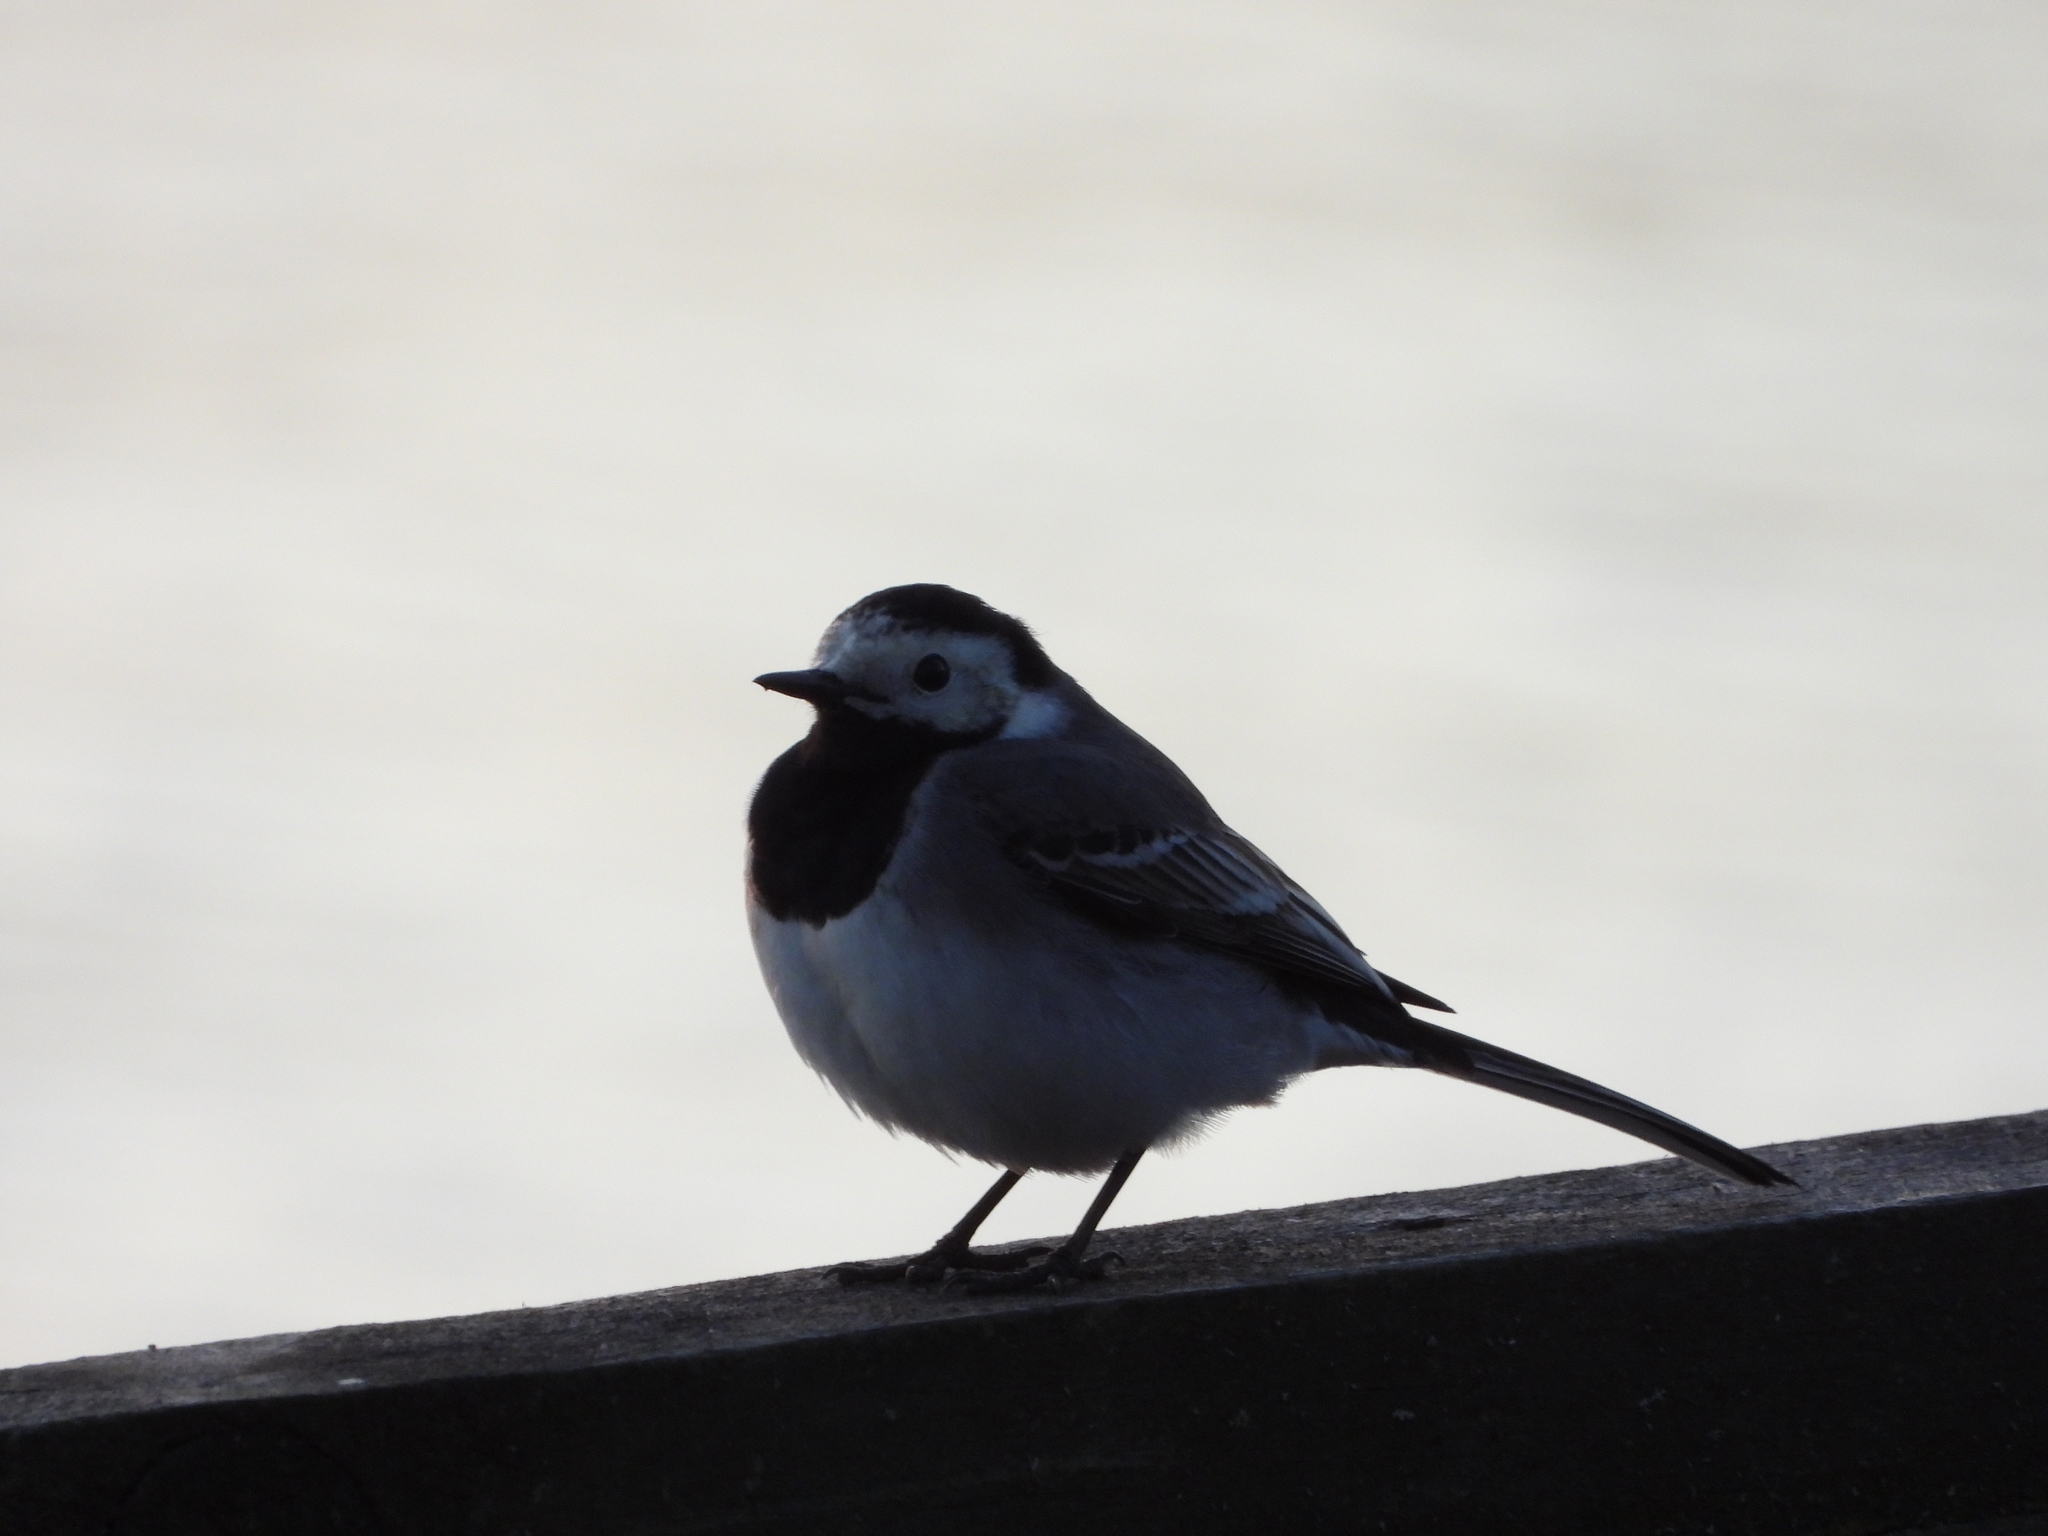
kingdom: Animalia
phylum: Chordata
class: Aves
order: Passeriformes
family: Motacillidae
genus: Motacilla
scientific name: Motacilla alba
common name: White wagtail
